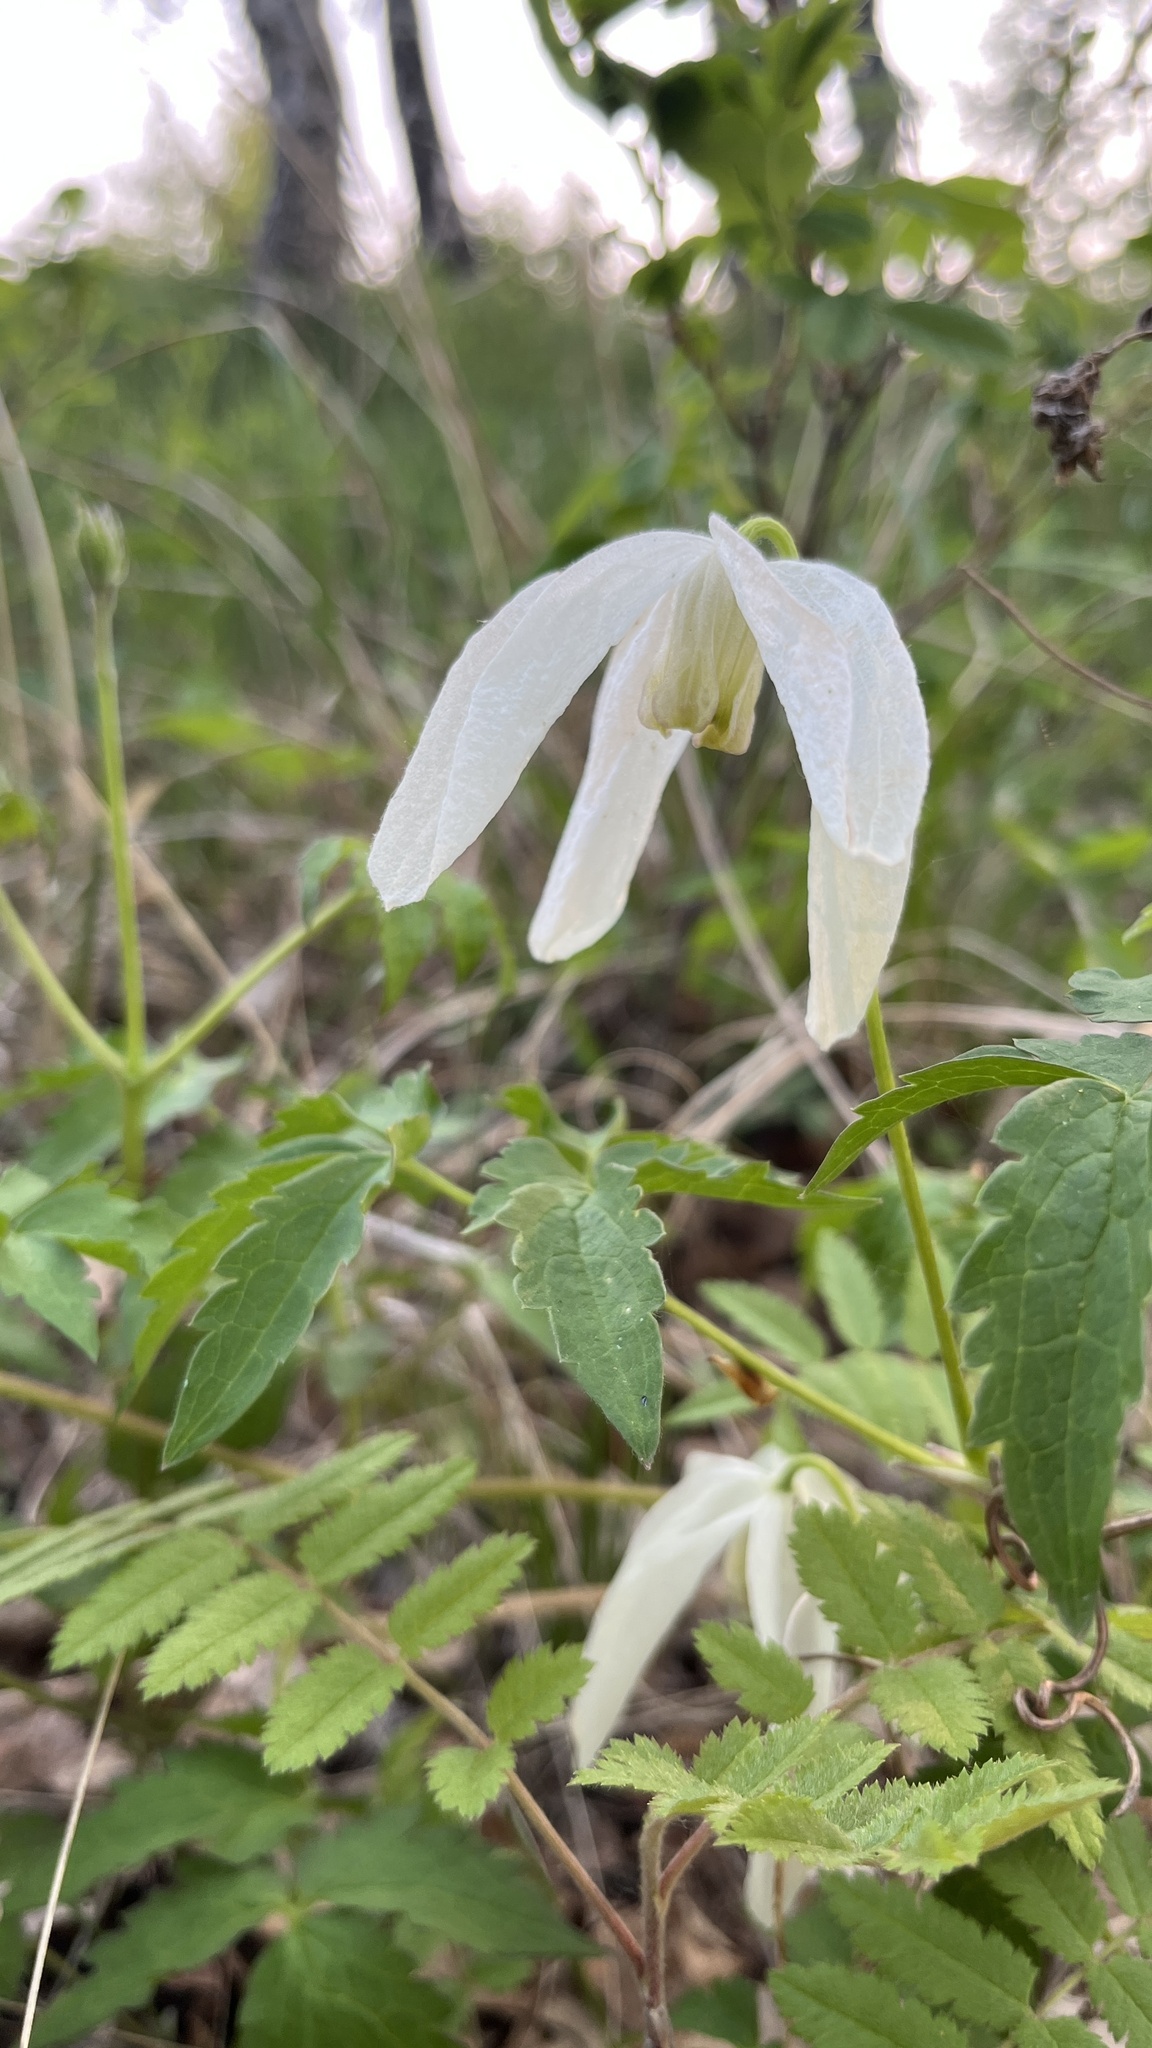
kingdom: Plantae
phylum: Tracheophyta
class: Magnoliopsida
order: Ranunculales
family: Ranunculaceae
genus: Clematis
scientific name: Clematis sibirica
